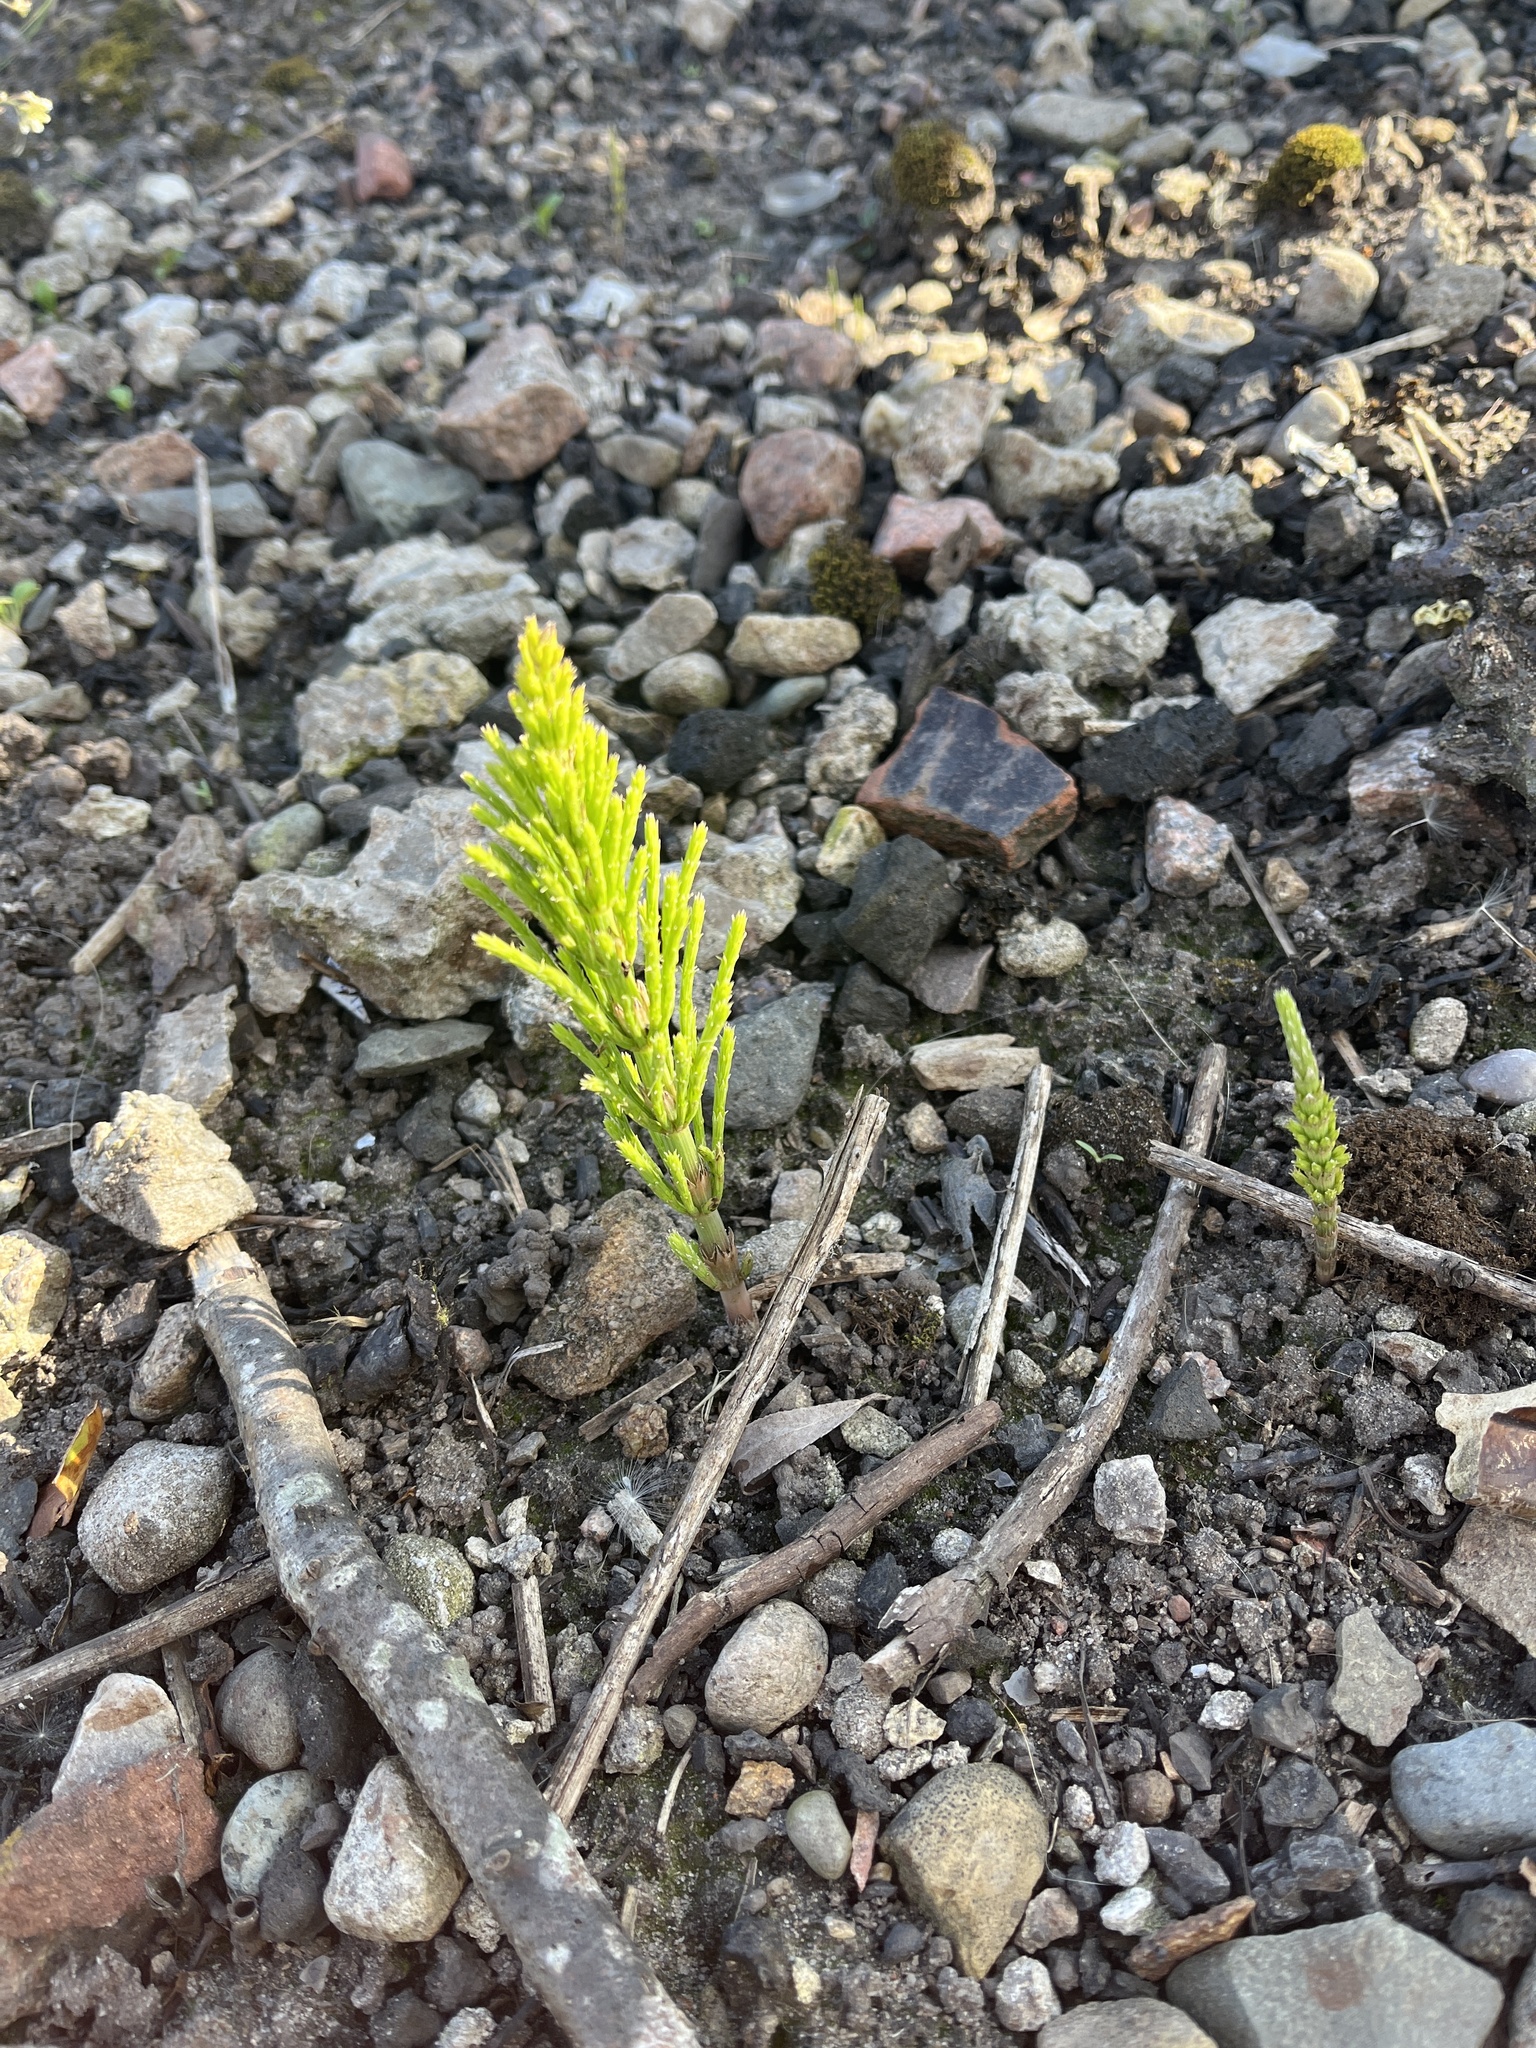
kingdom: Plantae
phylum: Tracheophyta
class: Polypodiopsida
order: Equisetales
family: Equisetaceae
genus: Equisetum
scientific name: Equisetum arvense
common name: Field horsetail
